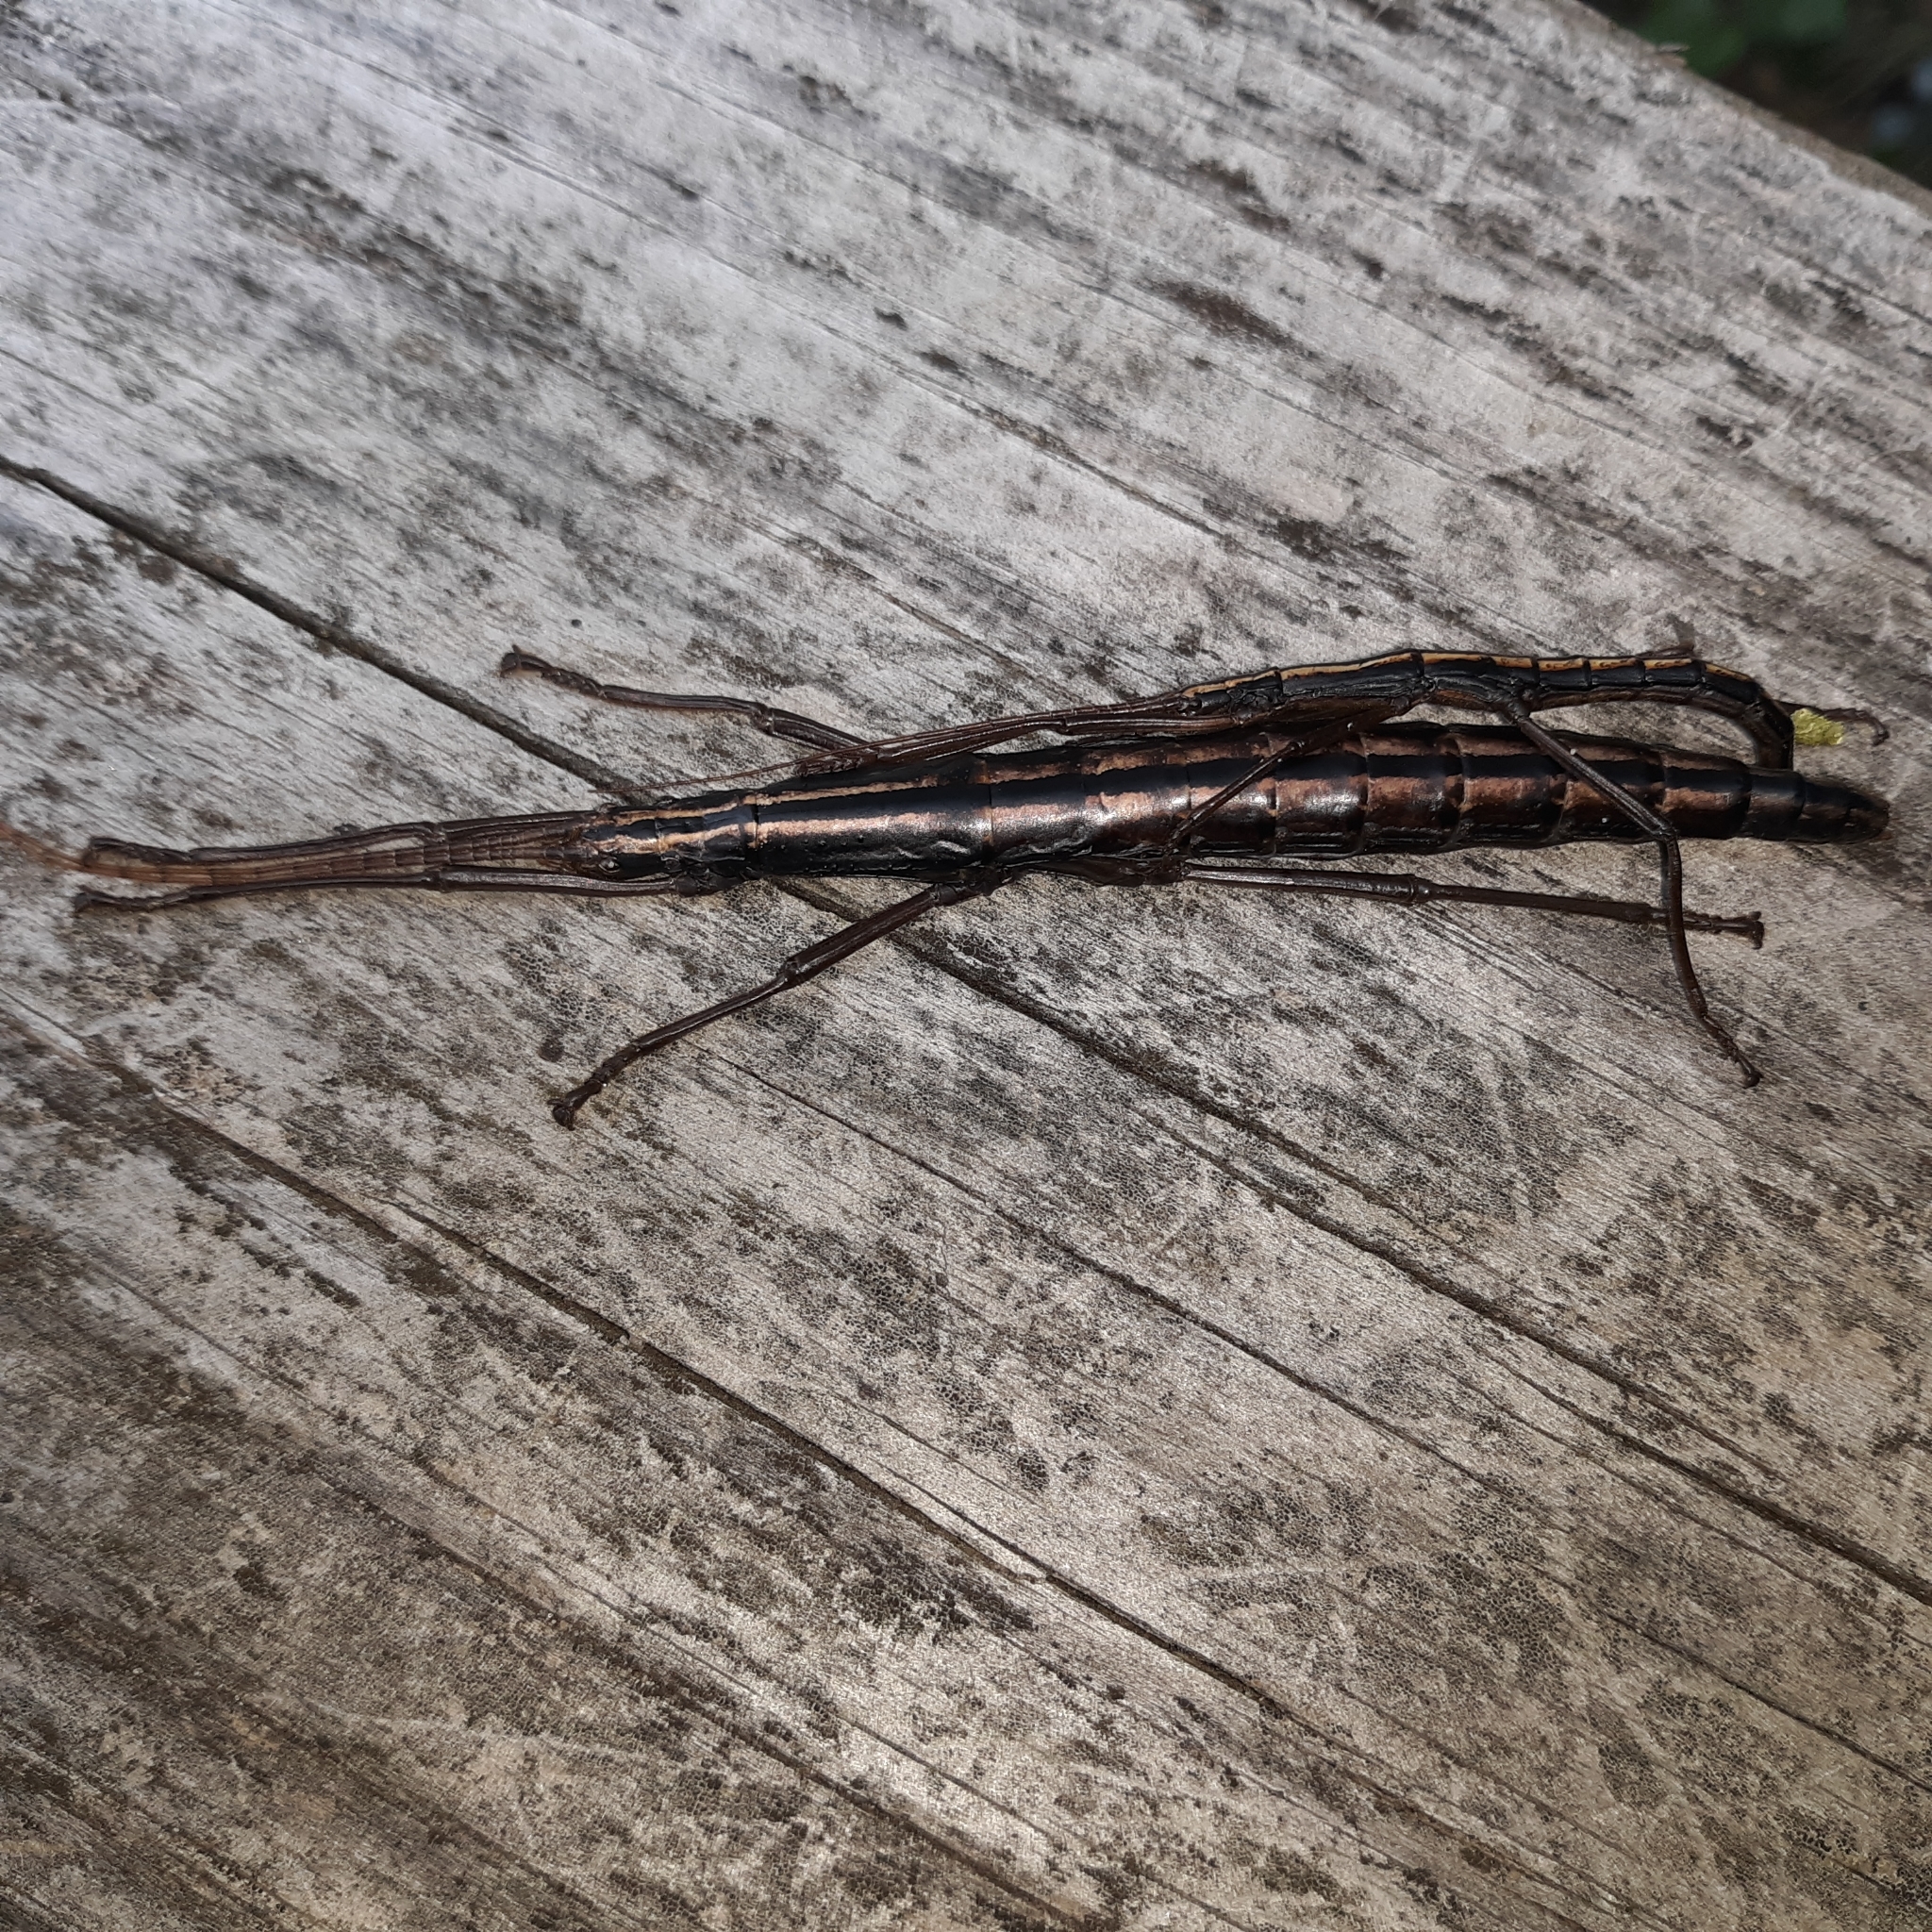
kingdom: Animalia
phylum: Arthropoda
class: Insecta
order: Phasmida
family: Pseudophasmatidae
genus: Anisomorpha
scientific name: Anisomorpha buprestoides
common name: Florida stick insect
